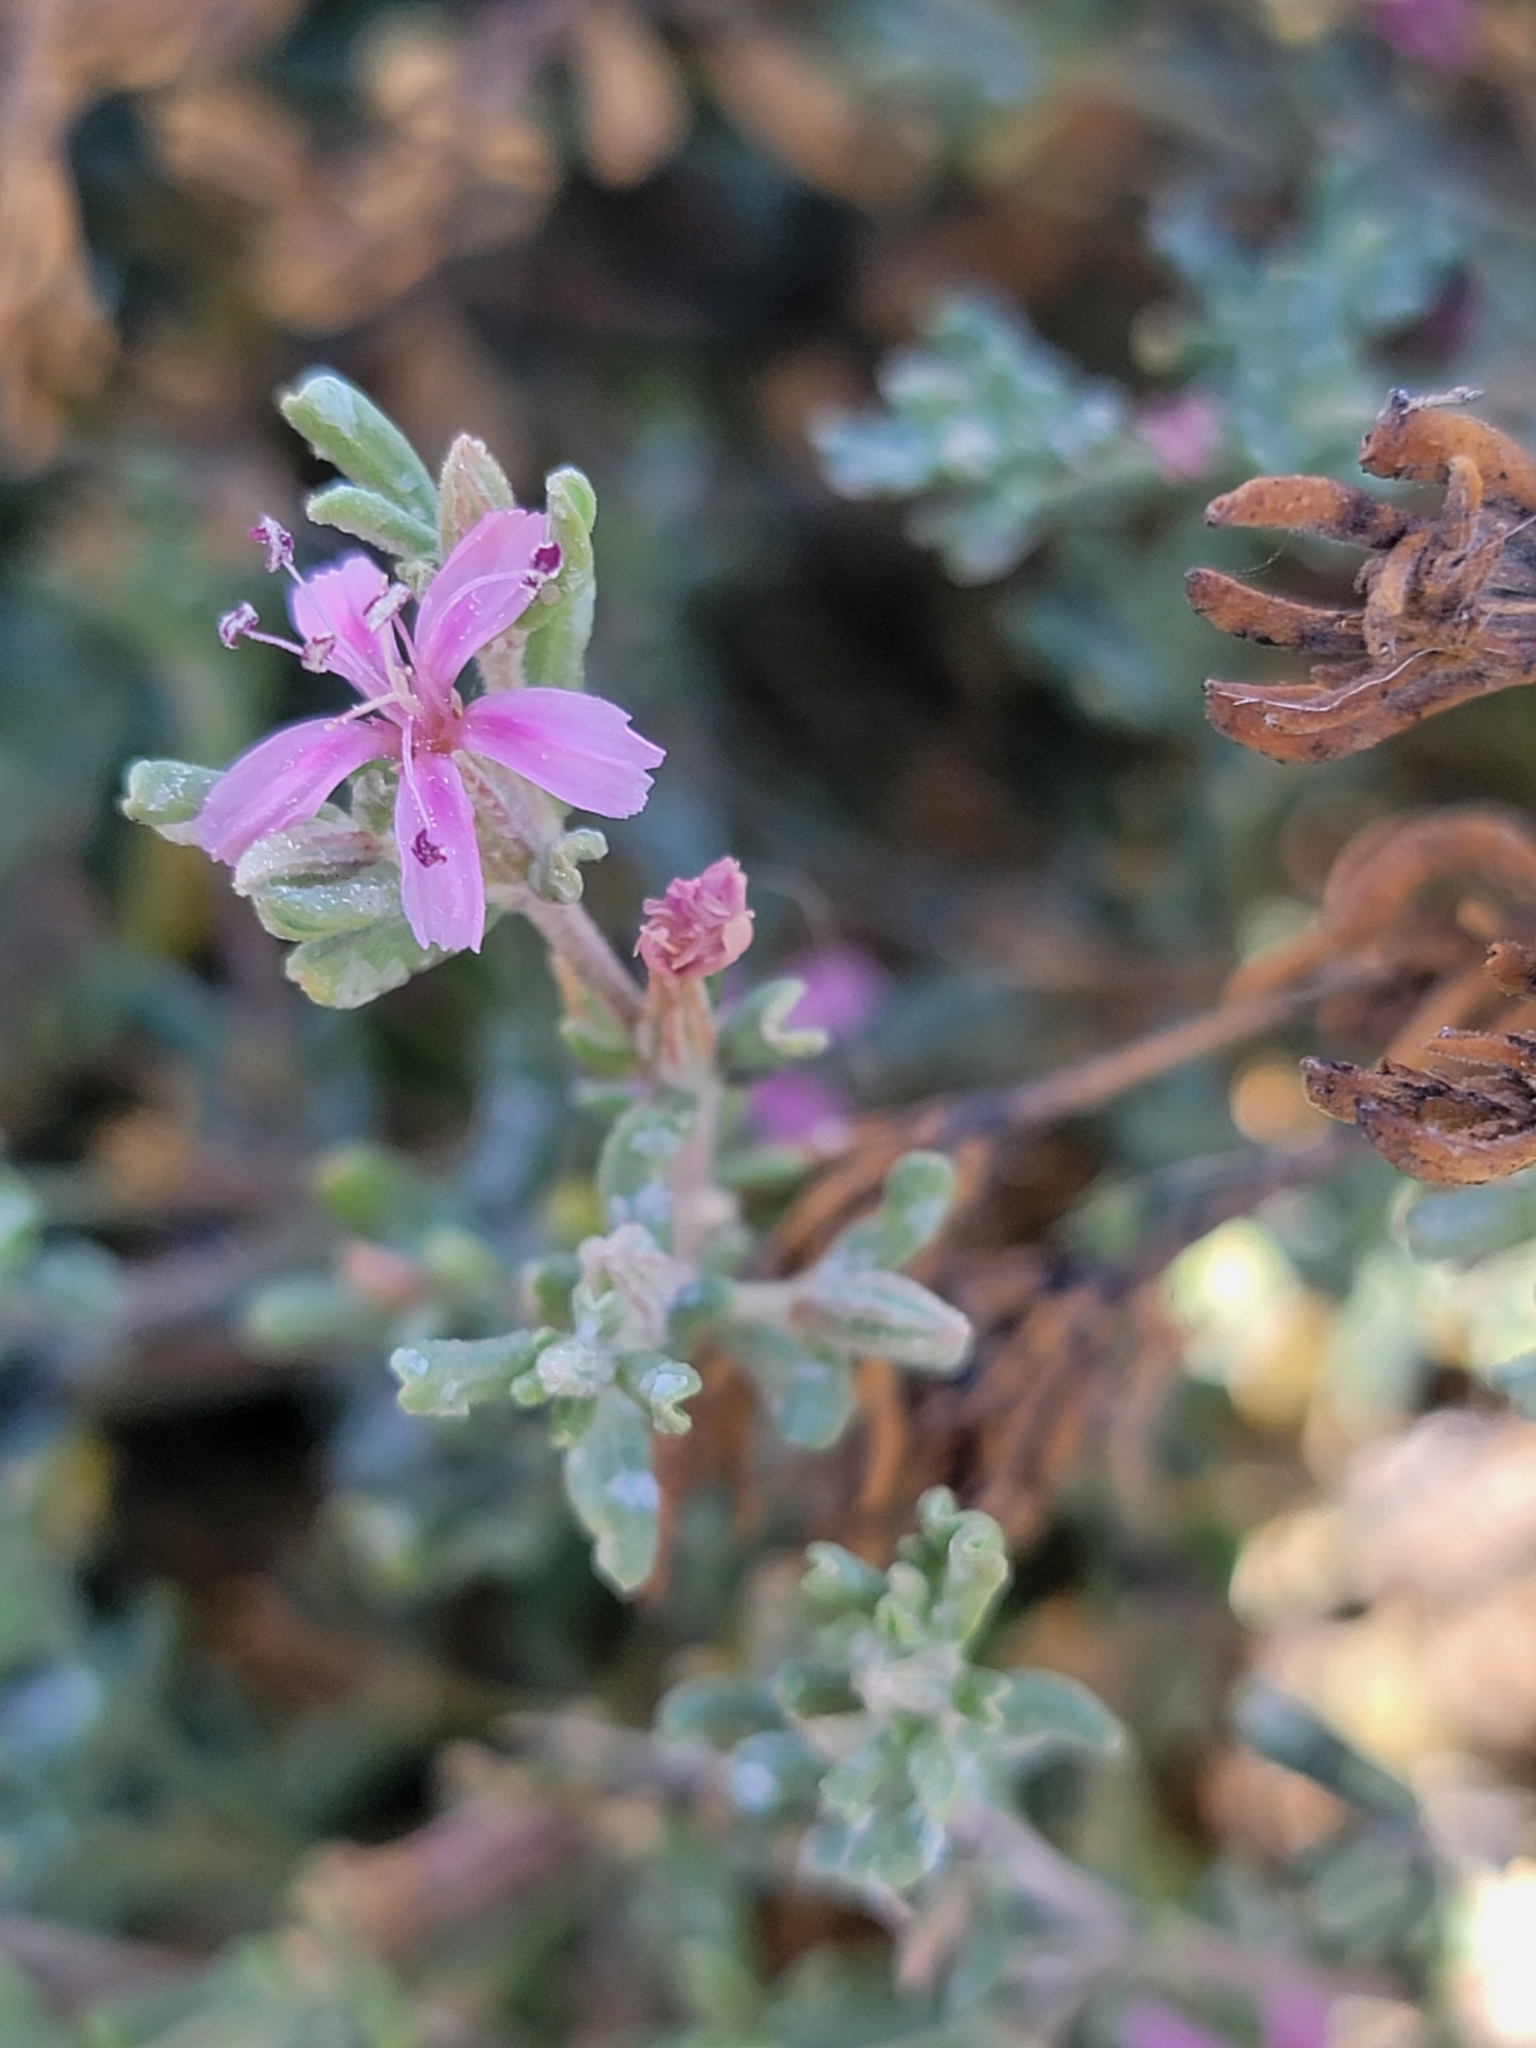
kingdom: Plantae
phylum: Tracheophyta
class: Magnoliopsida
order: Caryophyllales
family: Frankeniaceae
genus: Frankenia
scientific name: Frankenia salina
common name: Alkali seaheath
